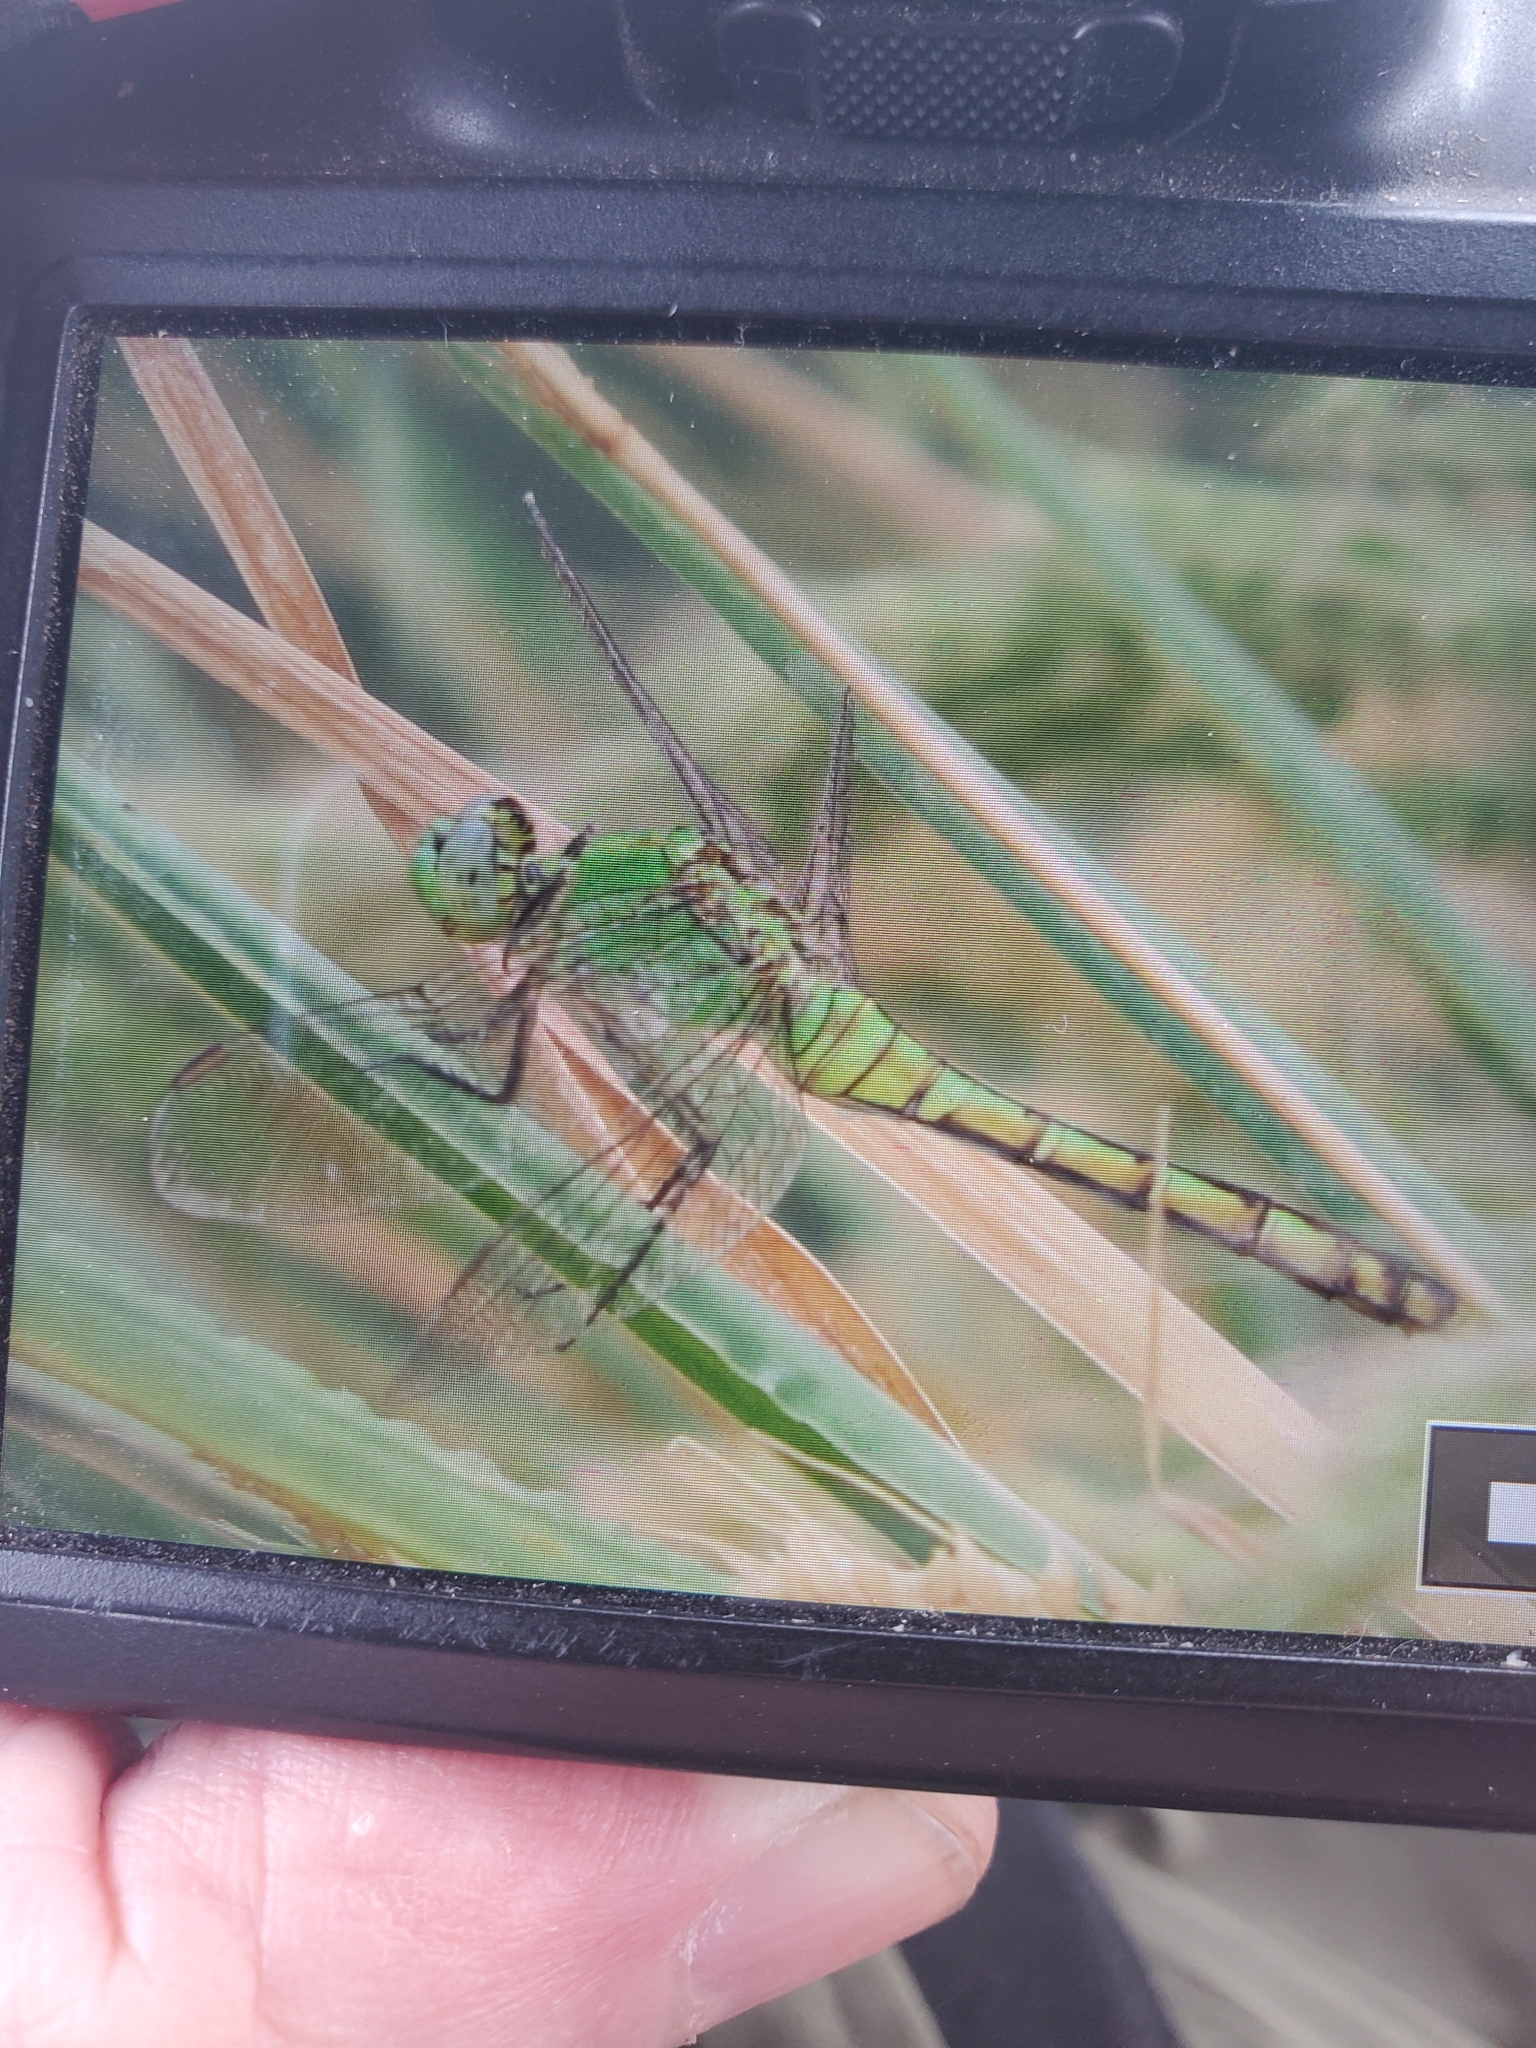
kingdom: Animalia
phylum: Arthropoda
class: Insecta
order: Odonata
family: Libellulidae
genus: Erythemis
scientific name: Erythemis collocata
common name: Western pondhawk
